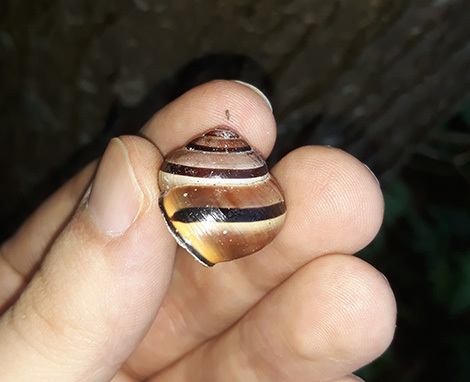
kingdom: Animalia
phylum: Mollusca
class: Gastropoda
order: Stylommatophora
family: Helicidae
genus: Cepaea
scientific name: Cepaea nemoralis
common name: Grovesnail
